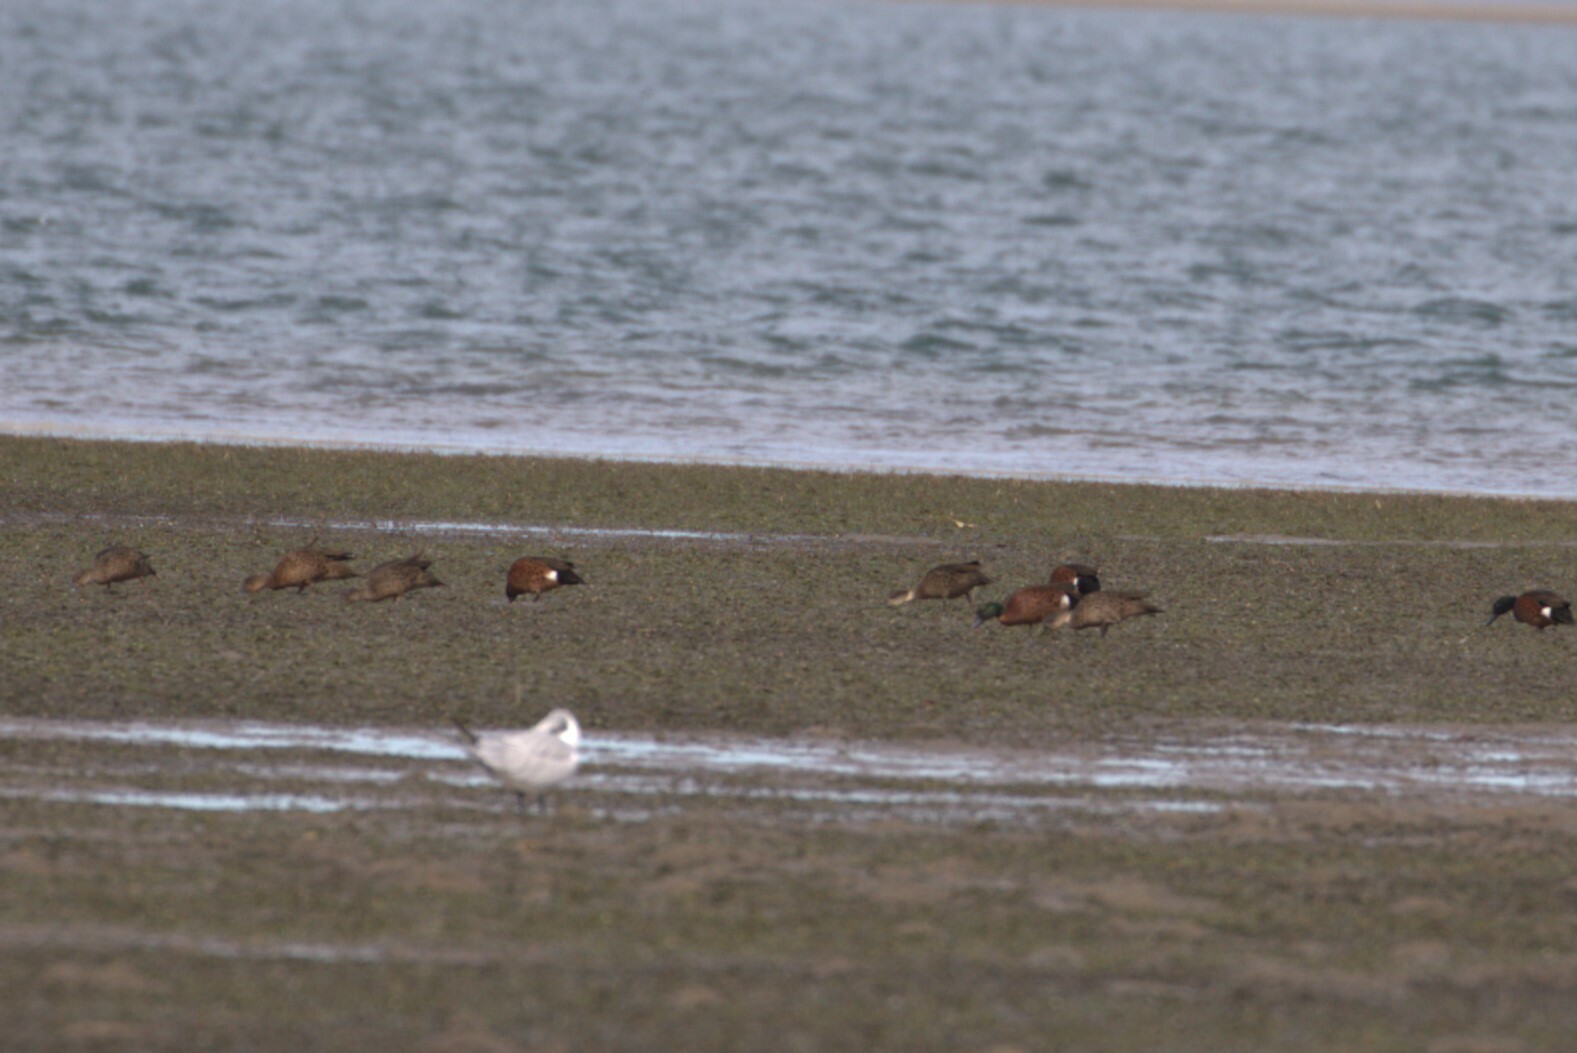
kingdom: Animalia
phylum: Chordata
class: Aves
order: Anseriformes
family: Anatidae
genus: Anas
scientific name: Anas castanea
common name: Chestnut teal
